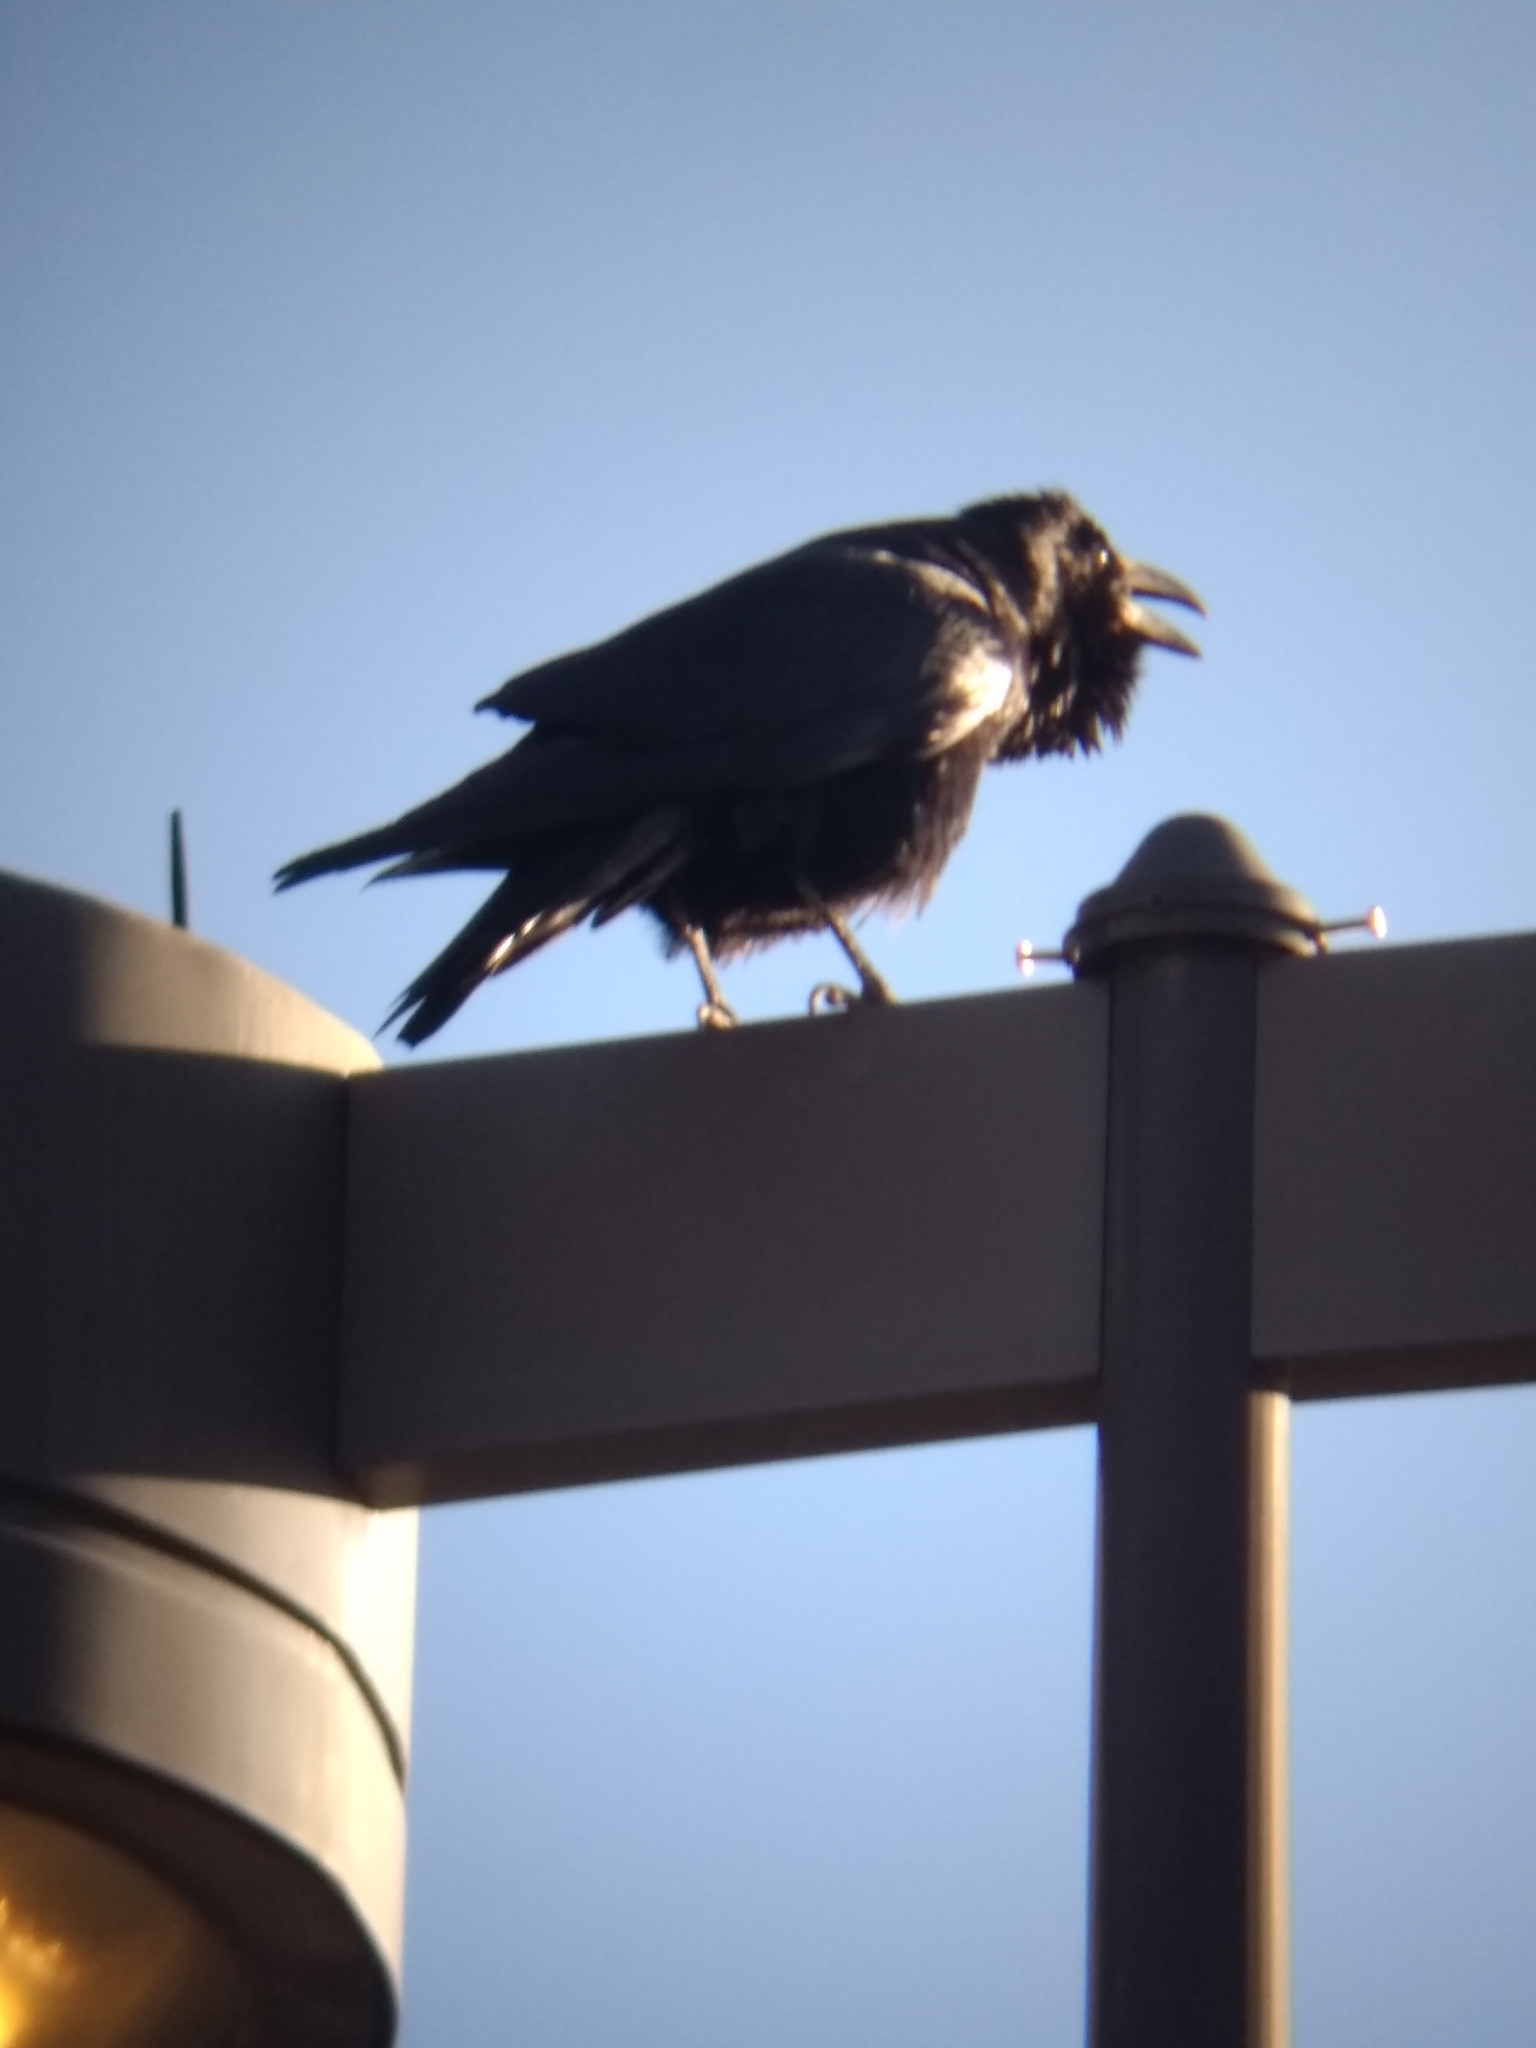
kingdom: Animalia
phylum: Chordata
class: Aves
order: Passeriformes
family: Corvidae
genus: Corvus
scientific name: Corvus corax
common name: Common raven
